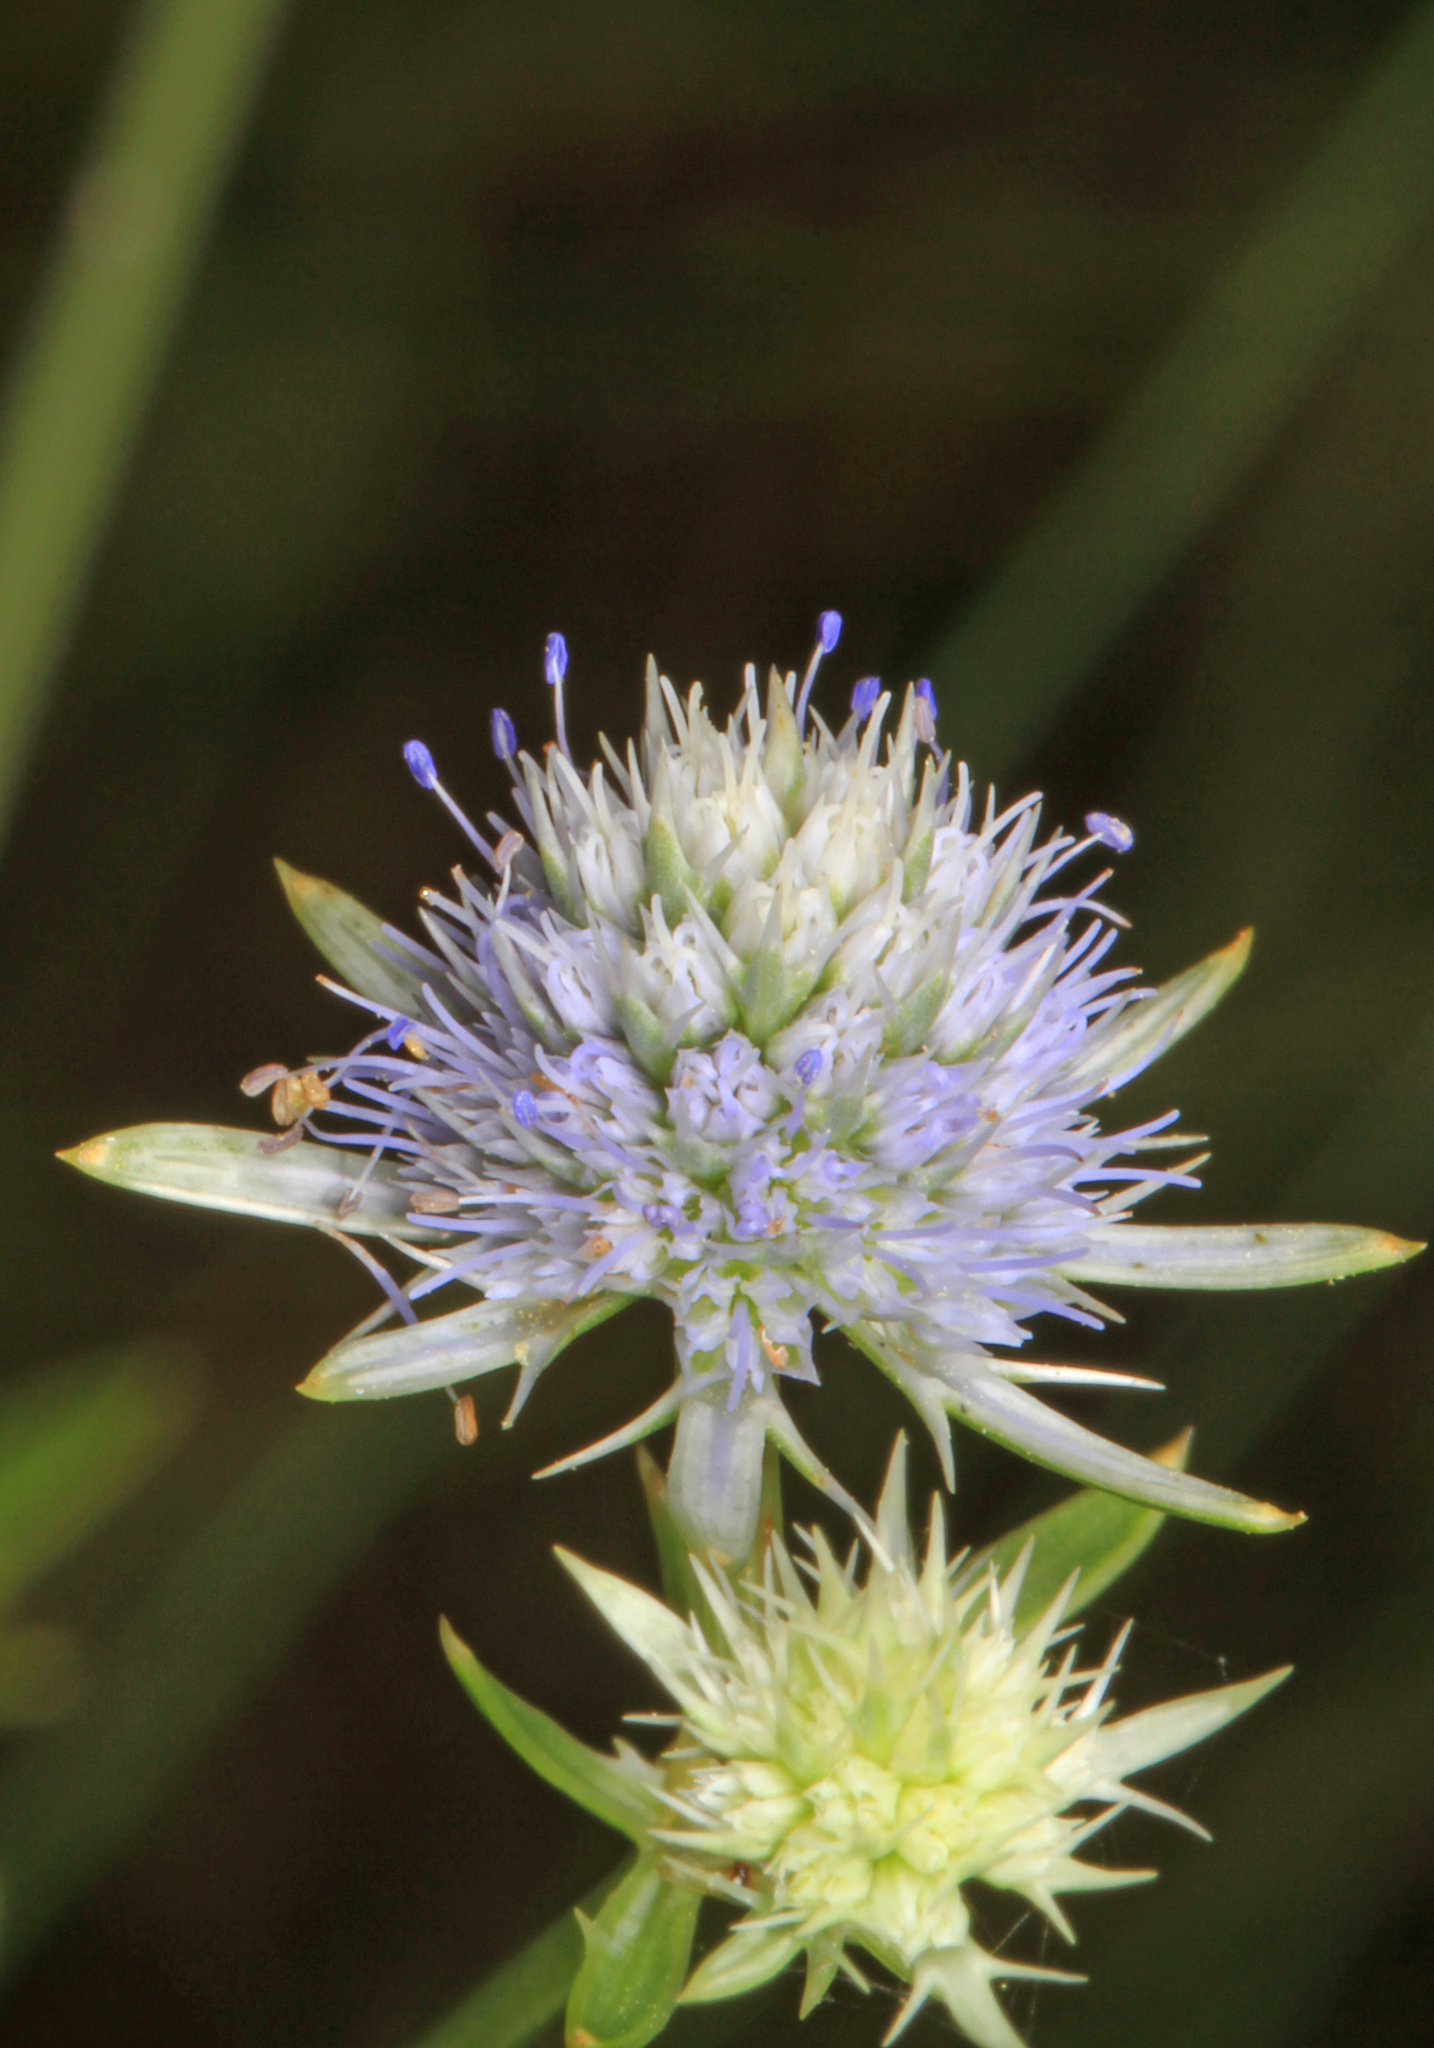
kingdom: Plantae
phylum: Tracheophyta
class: Magnoliopsida
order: Apiales
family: Apiaceae
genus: Eryngium
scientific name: Eryngium integrifolium
